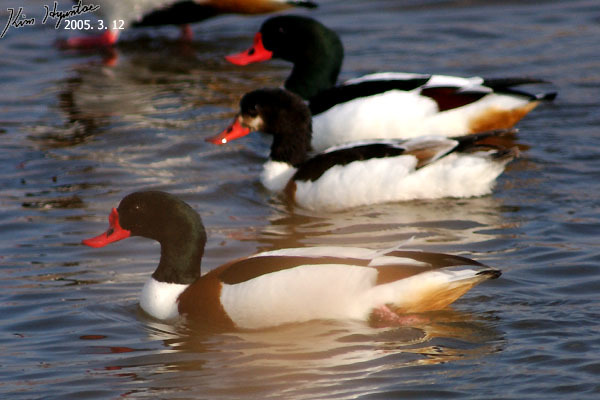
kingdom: Animalia
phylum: Chordata
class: Aves
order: Anseriformes
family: Anatidae
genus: Tadorna
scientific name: Tadorna tadorna
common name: Common shelduck
